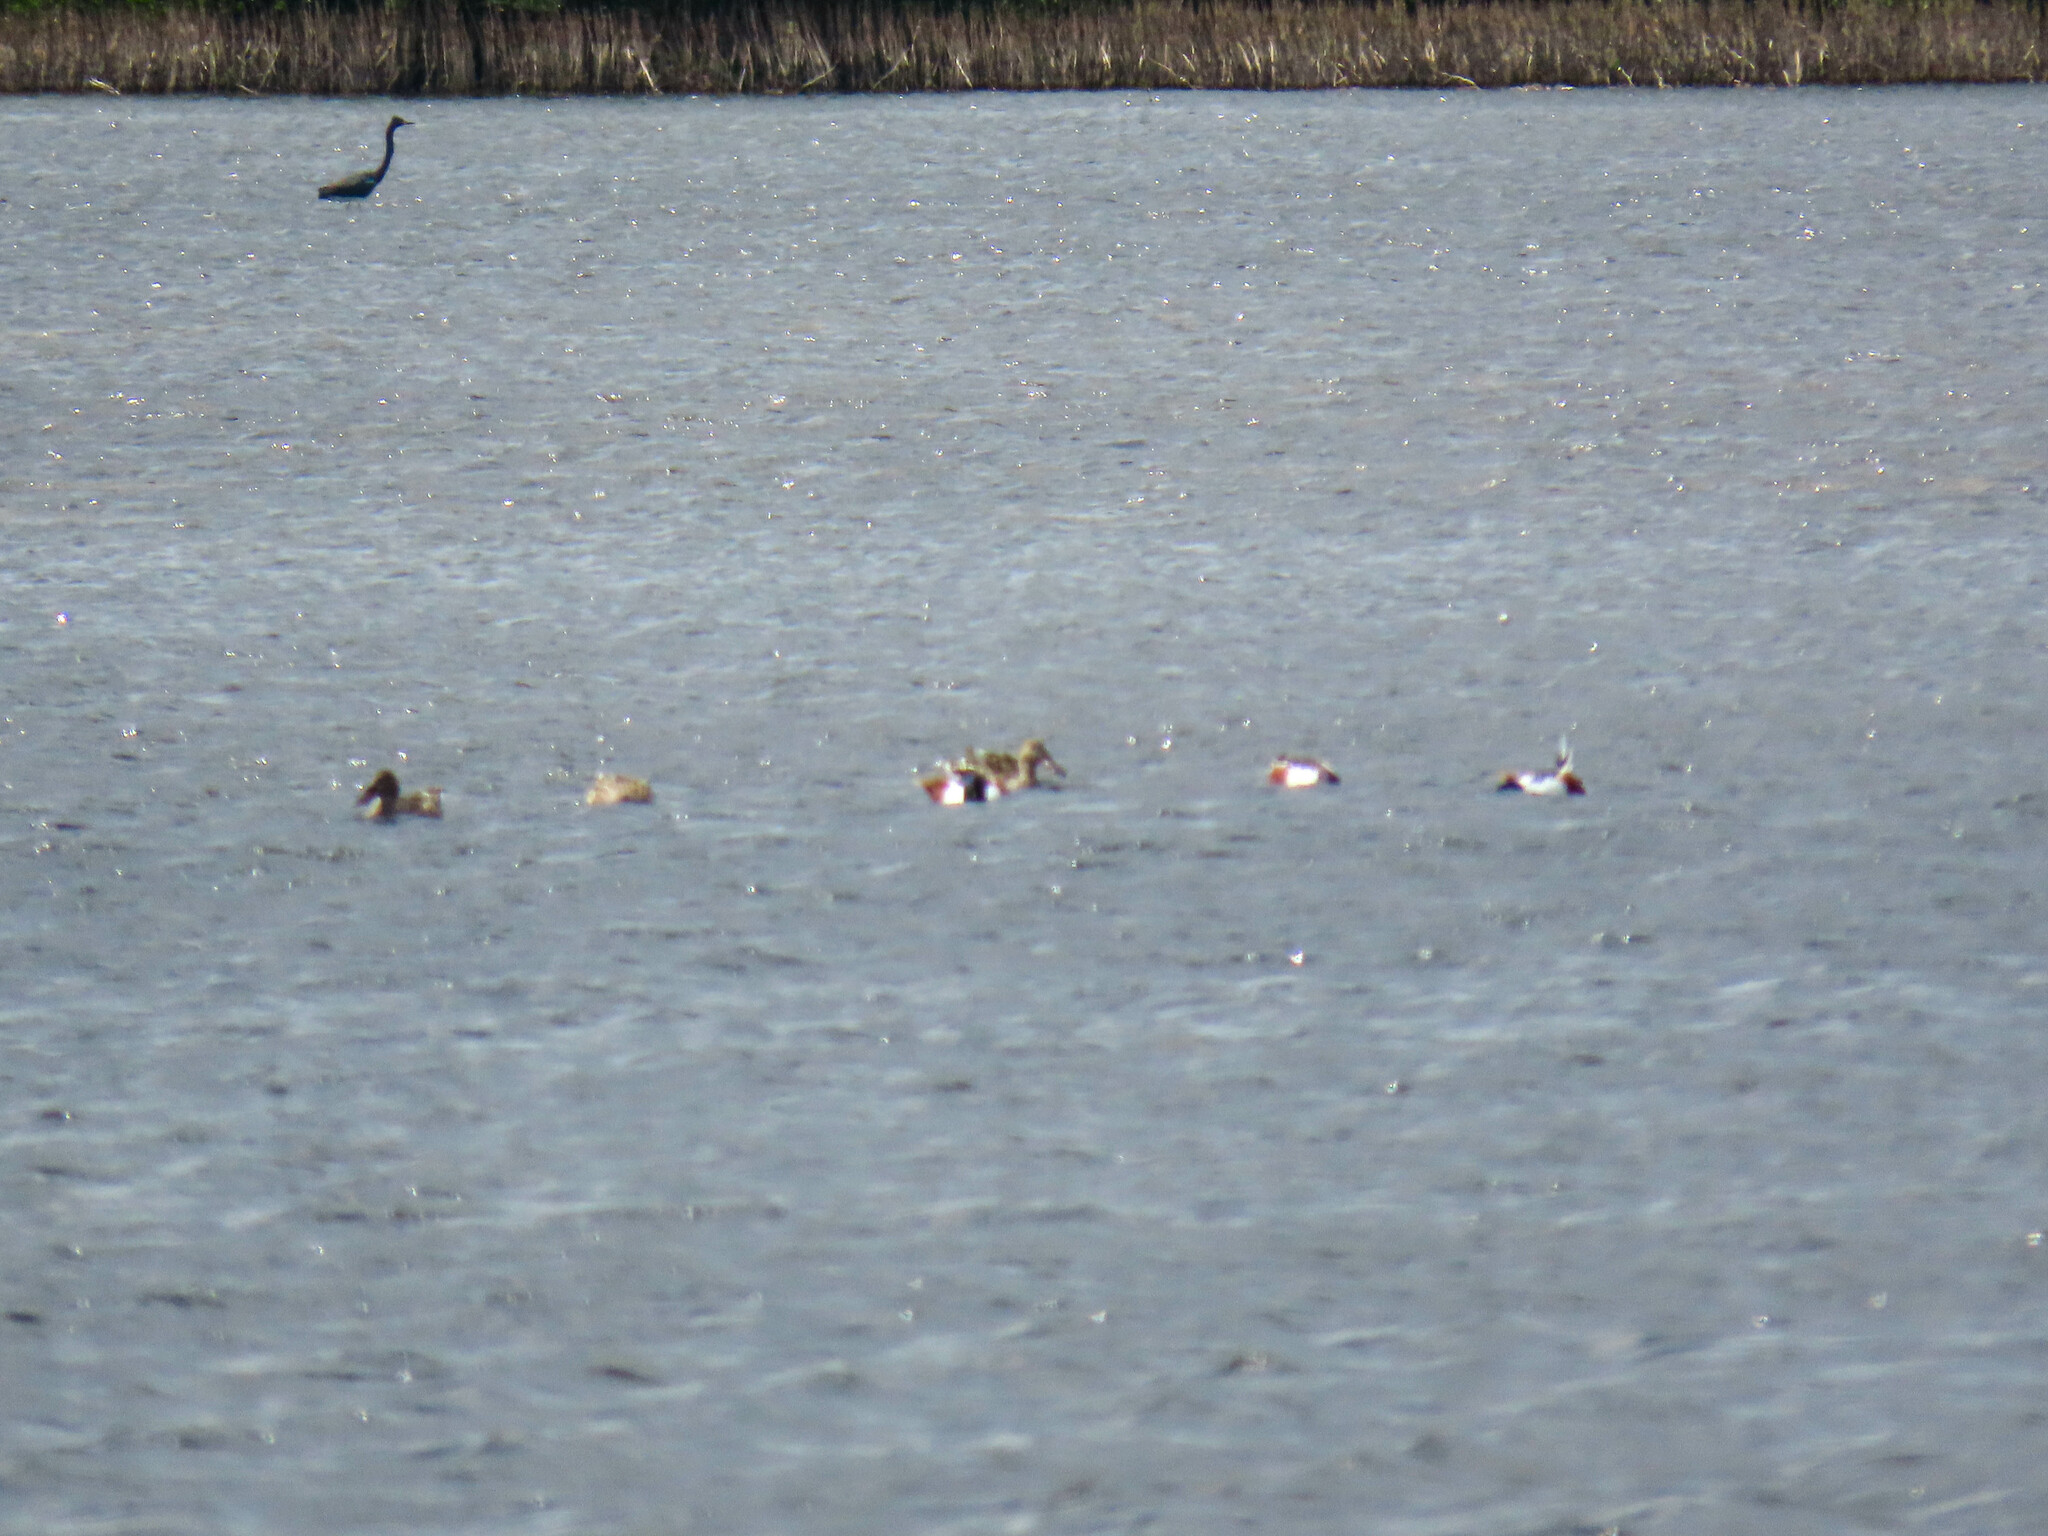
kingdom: Animalia
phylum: Chordata
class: Aves
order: Anseriformes
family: Anatidae
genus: Spatula
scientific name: Spatula clypeata
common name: Northern shoveler
